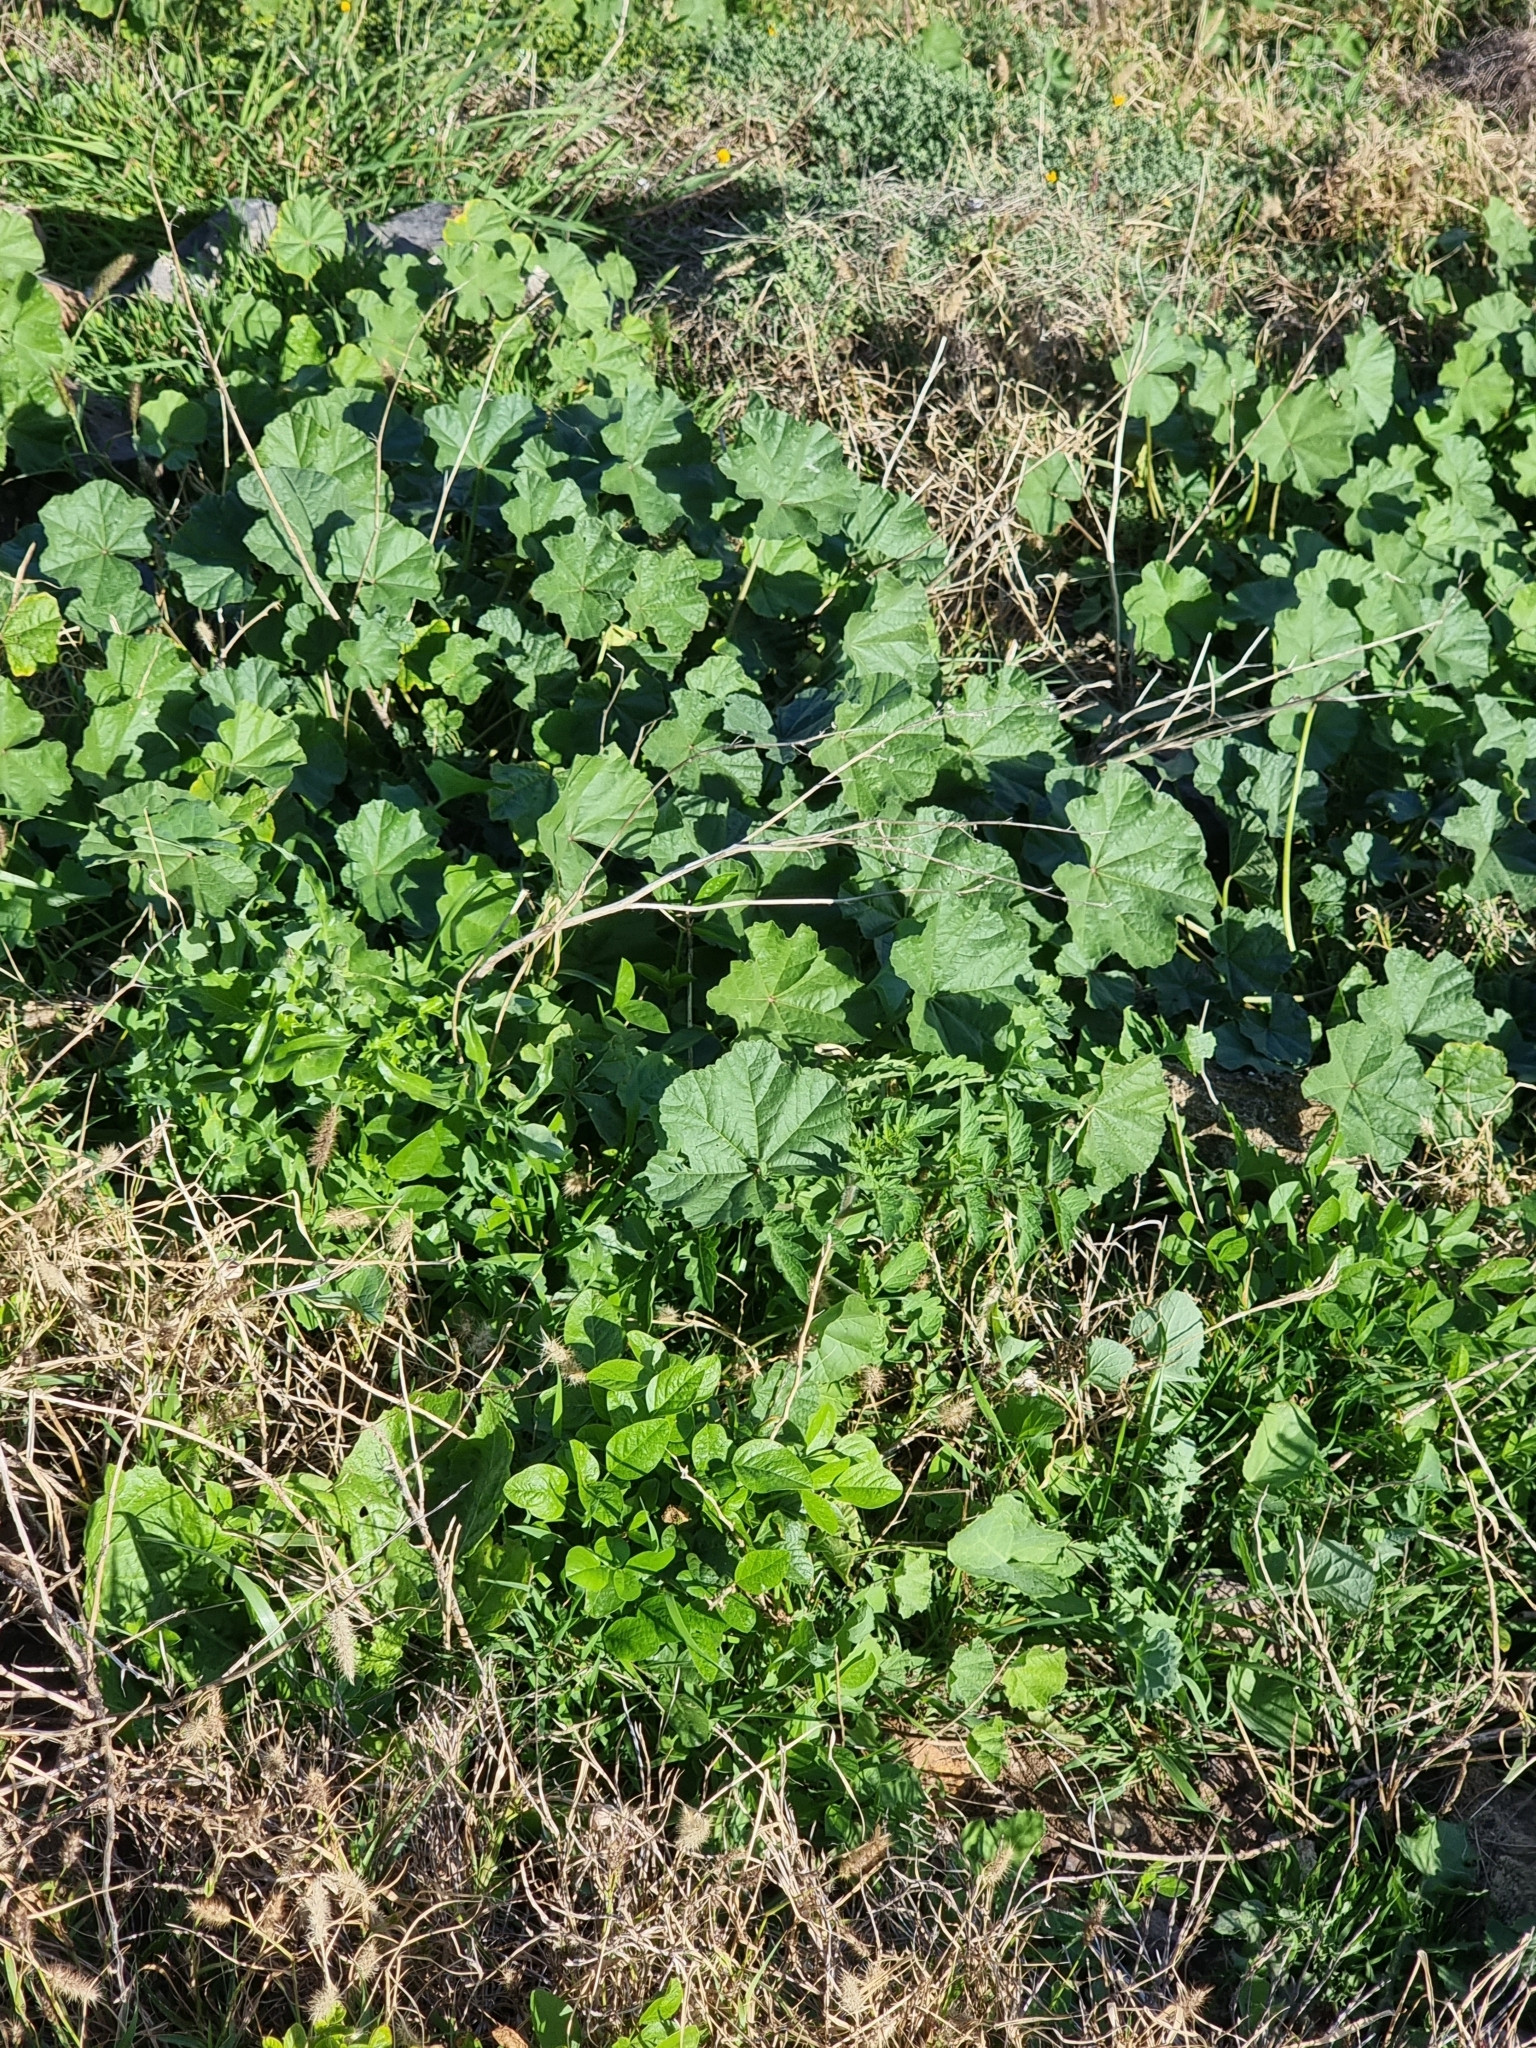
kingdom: Plantae
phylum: Tracheophyta
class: Magnoliopsida
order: Malvales
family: Malvaceae
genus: Malva
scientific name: Malva sylvestris
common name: Common mallow
